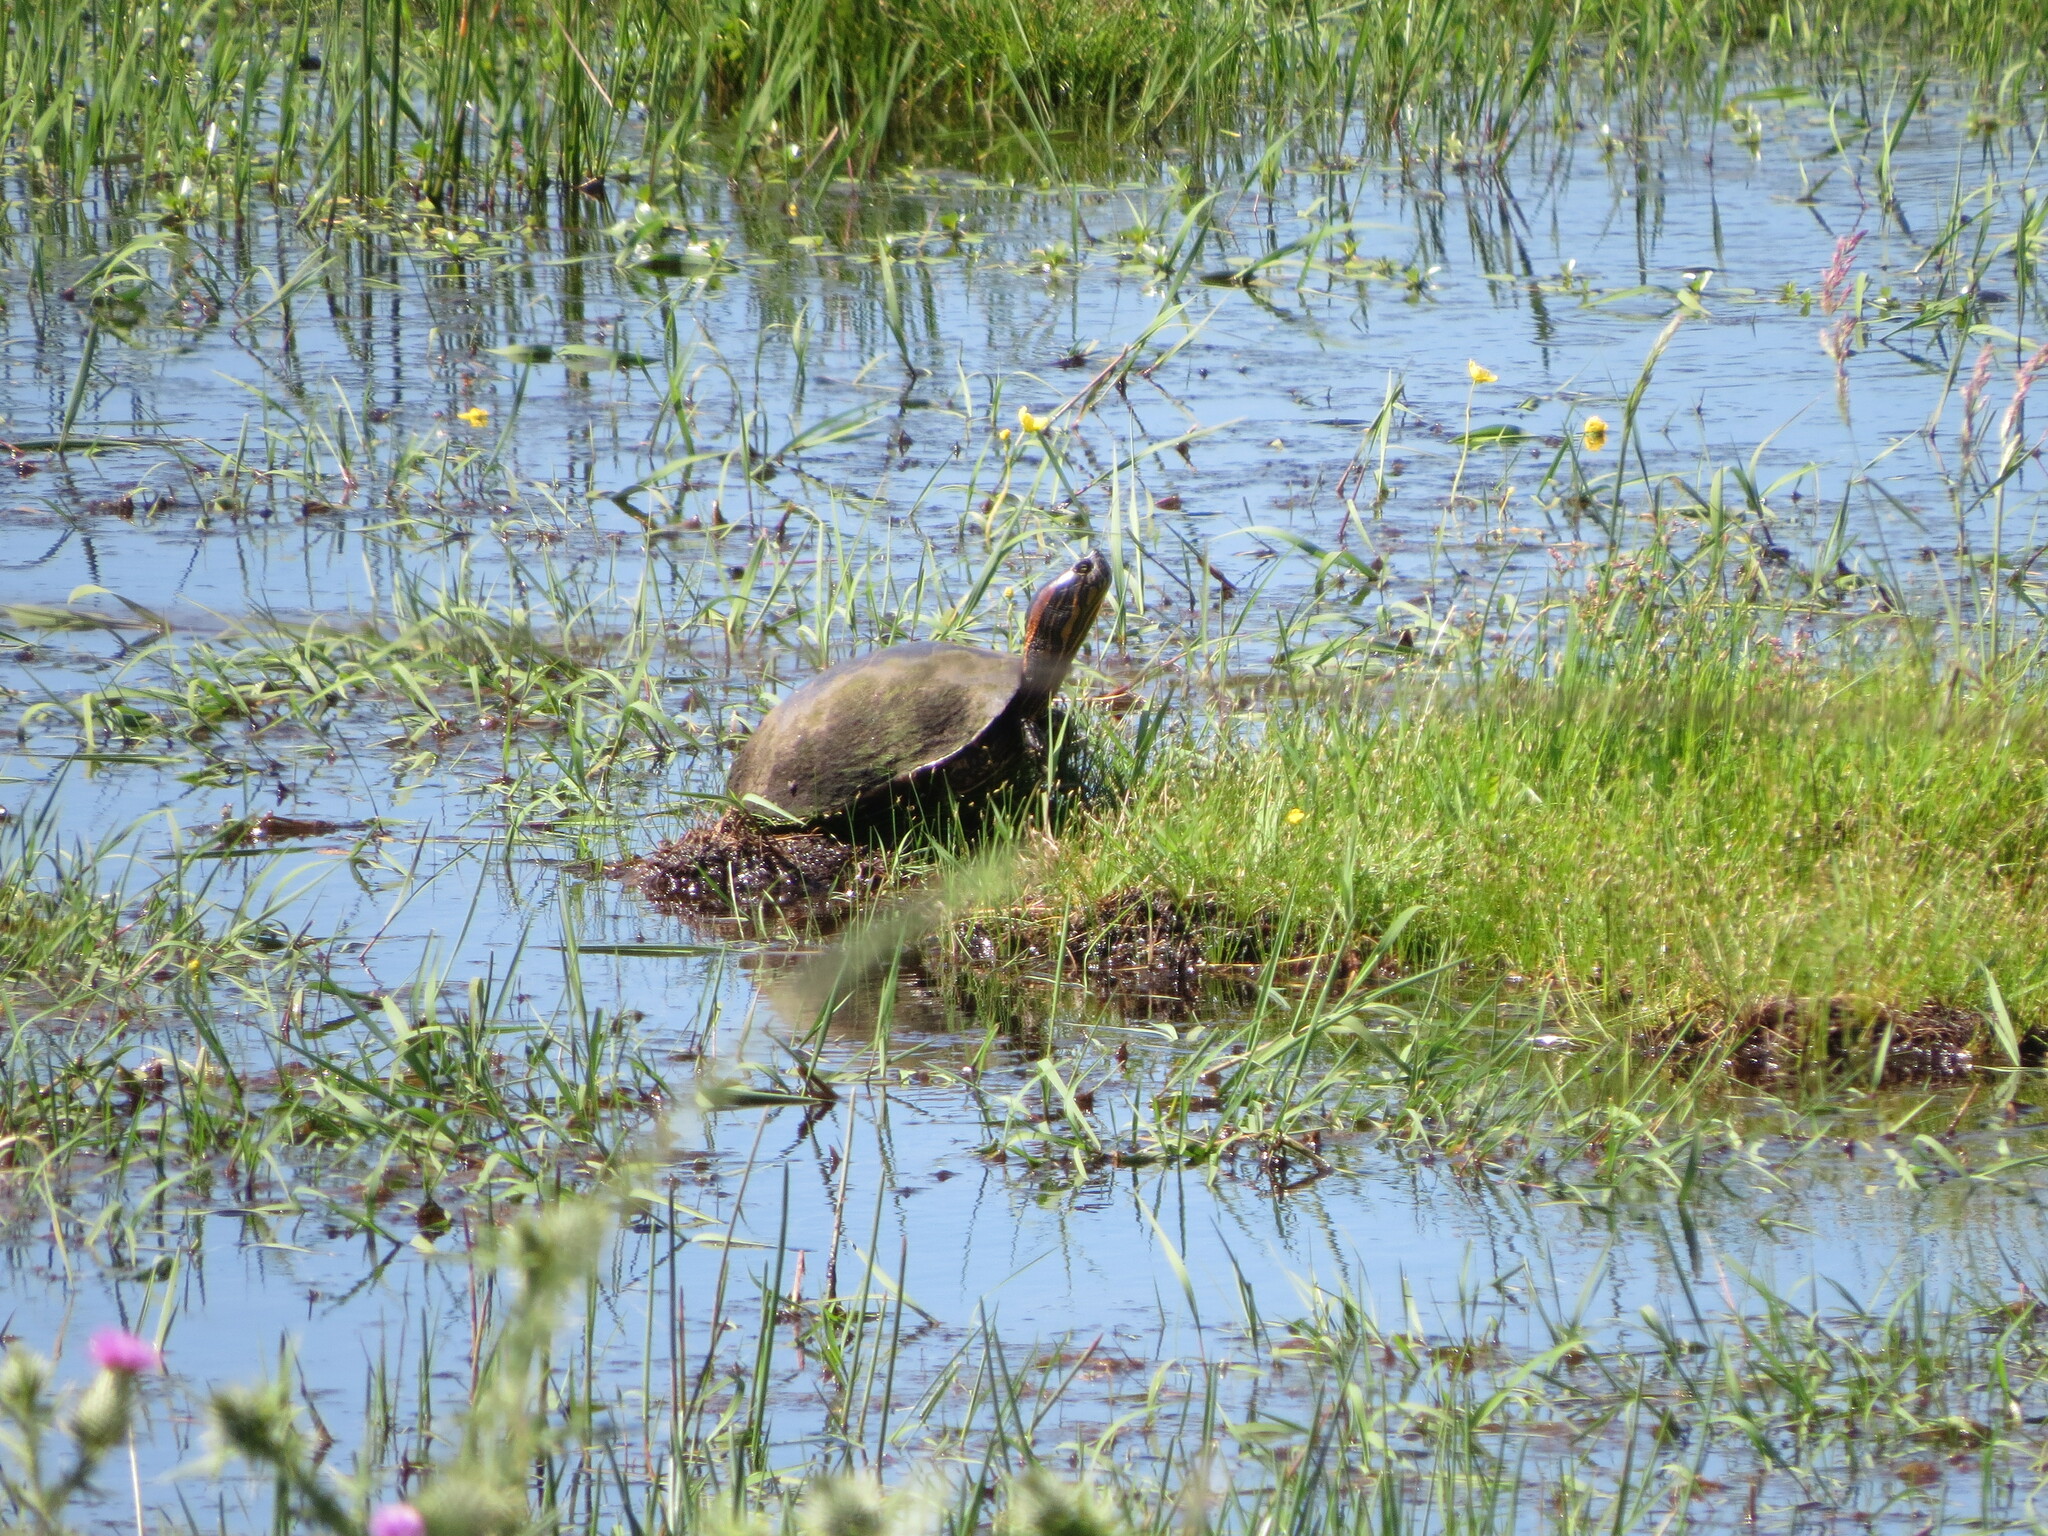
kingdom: Animalia
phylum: Chordata
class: Testudines
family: Emydidae
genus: Trachemys
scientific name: Trachemys dorbigni
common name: Black-bellied slider
